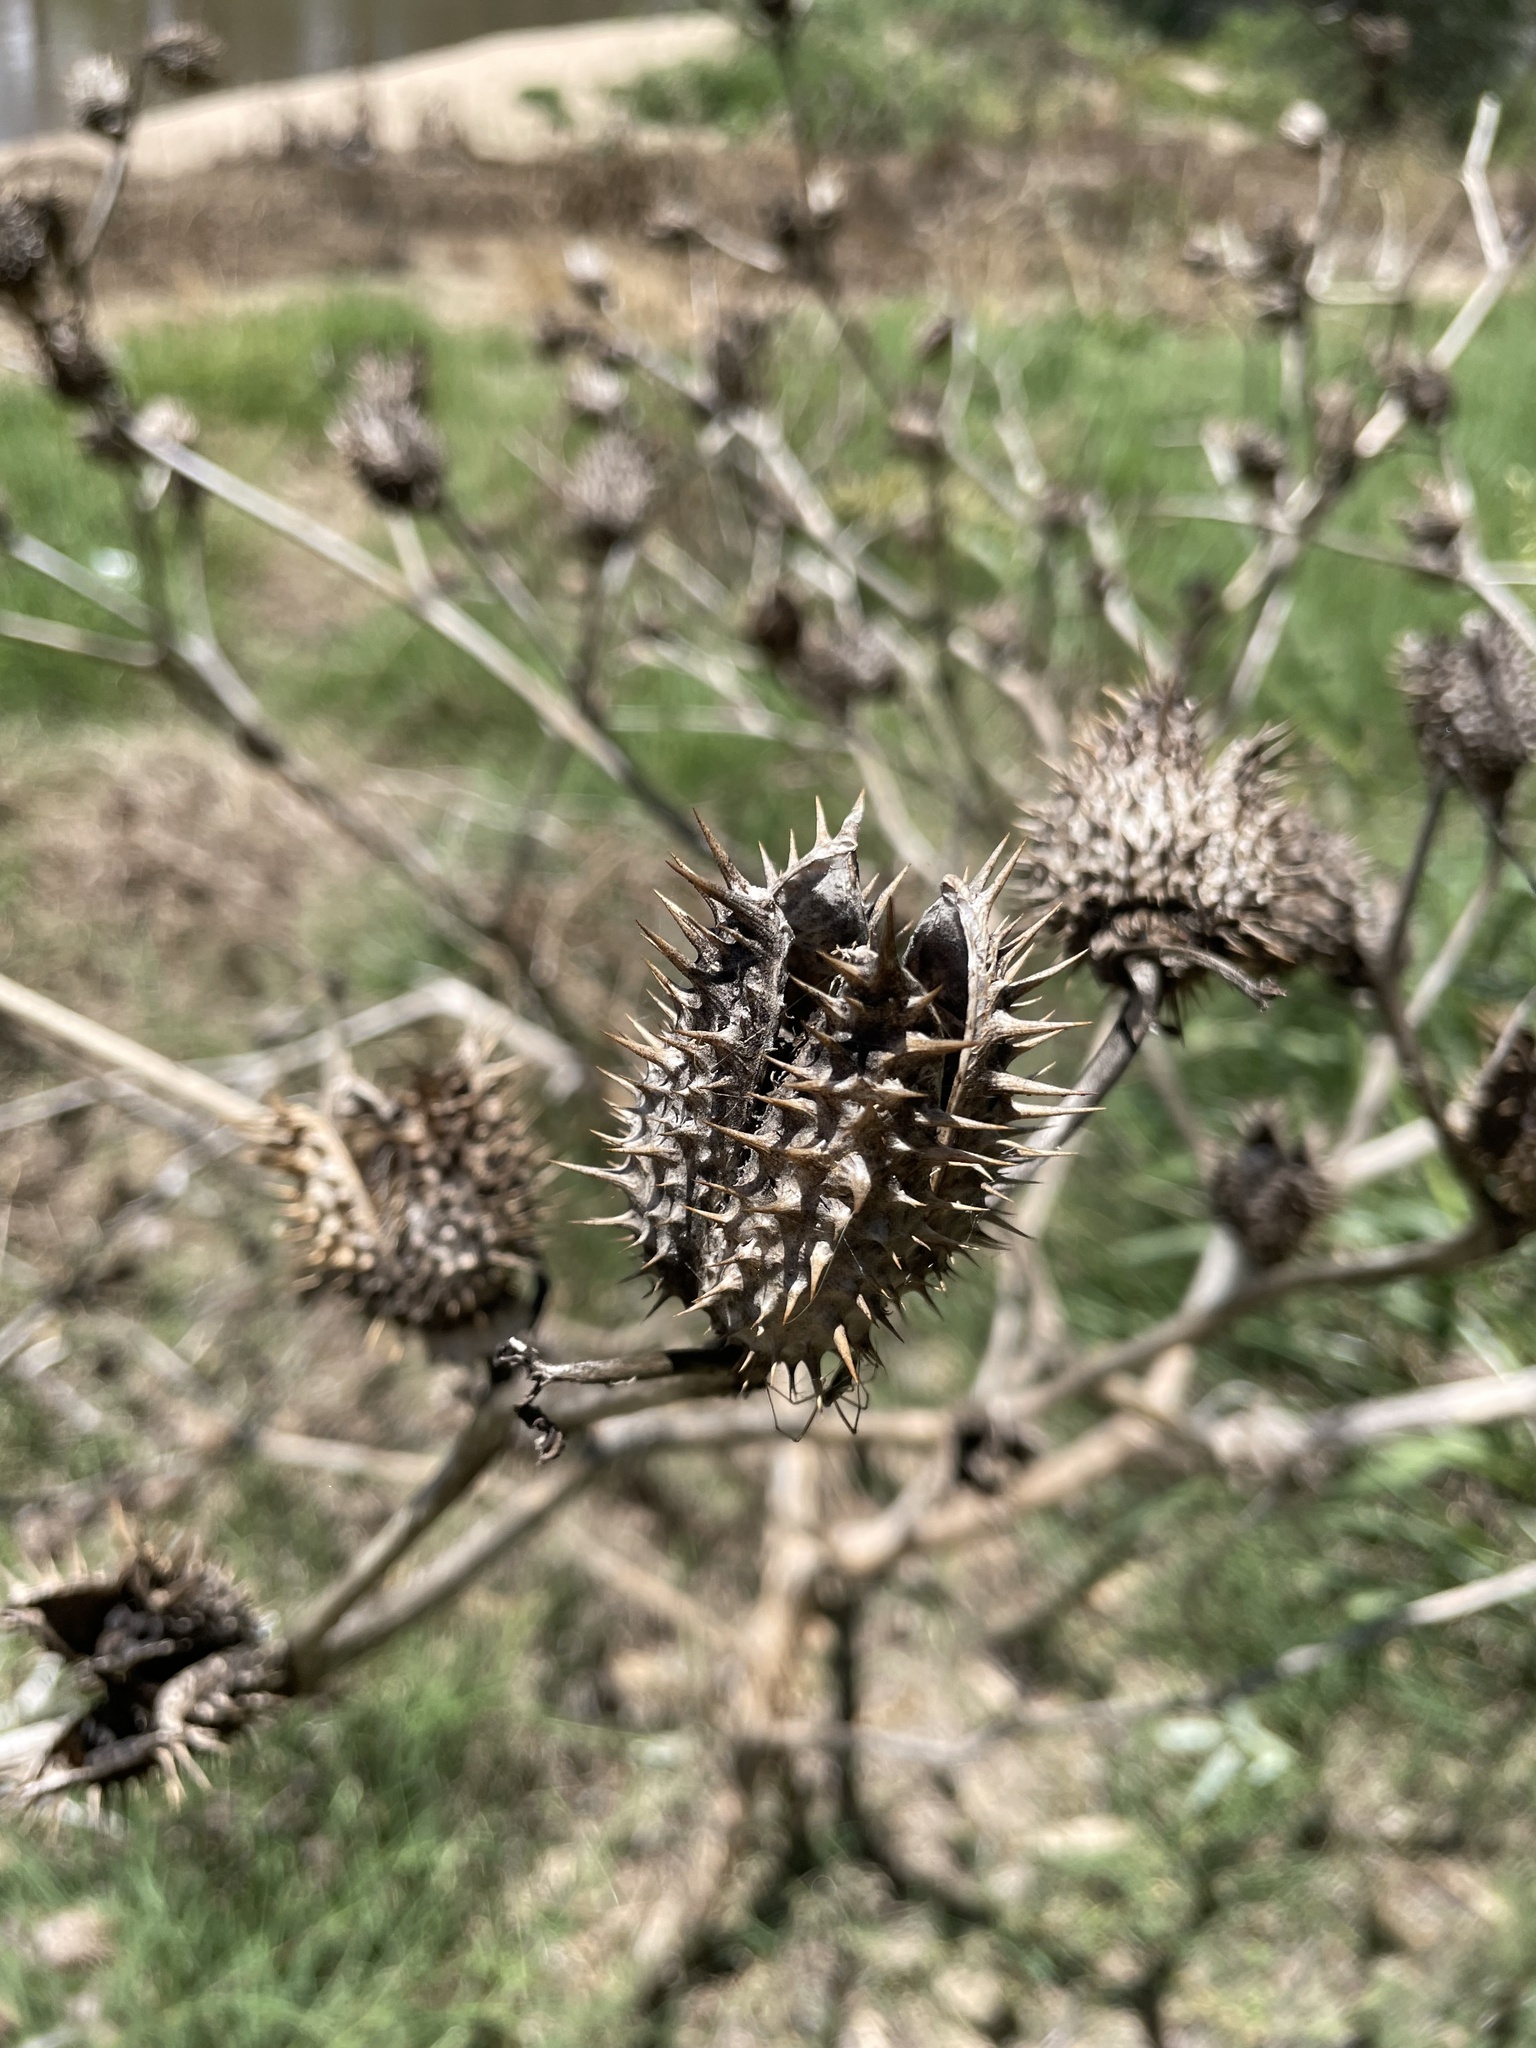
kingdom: Plantae
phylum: Tracheophyta
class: Magnoliopsida
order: Solanales
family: Solanaceae
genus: Datura
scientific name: Datura stramonium
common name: Thorn-apple
